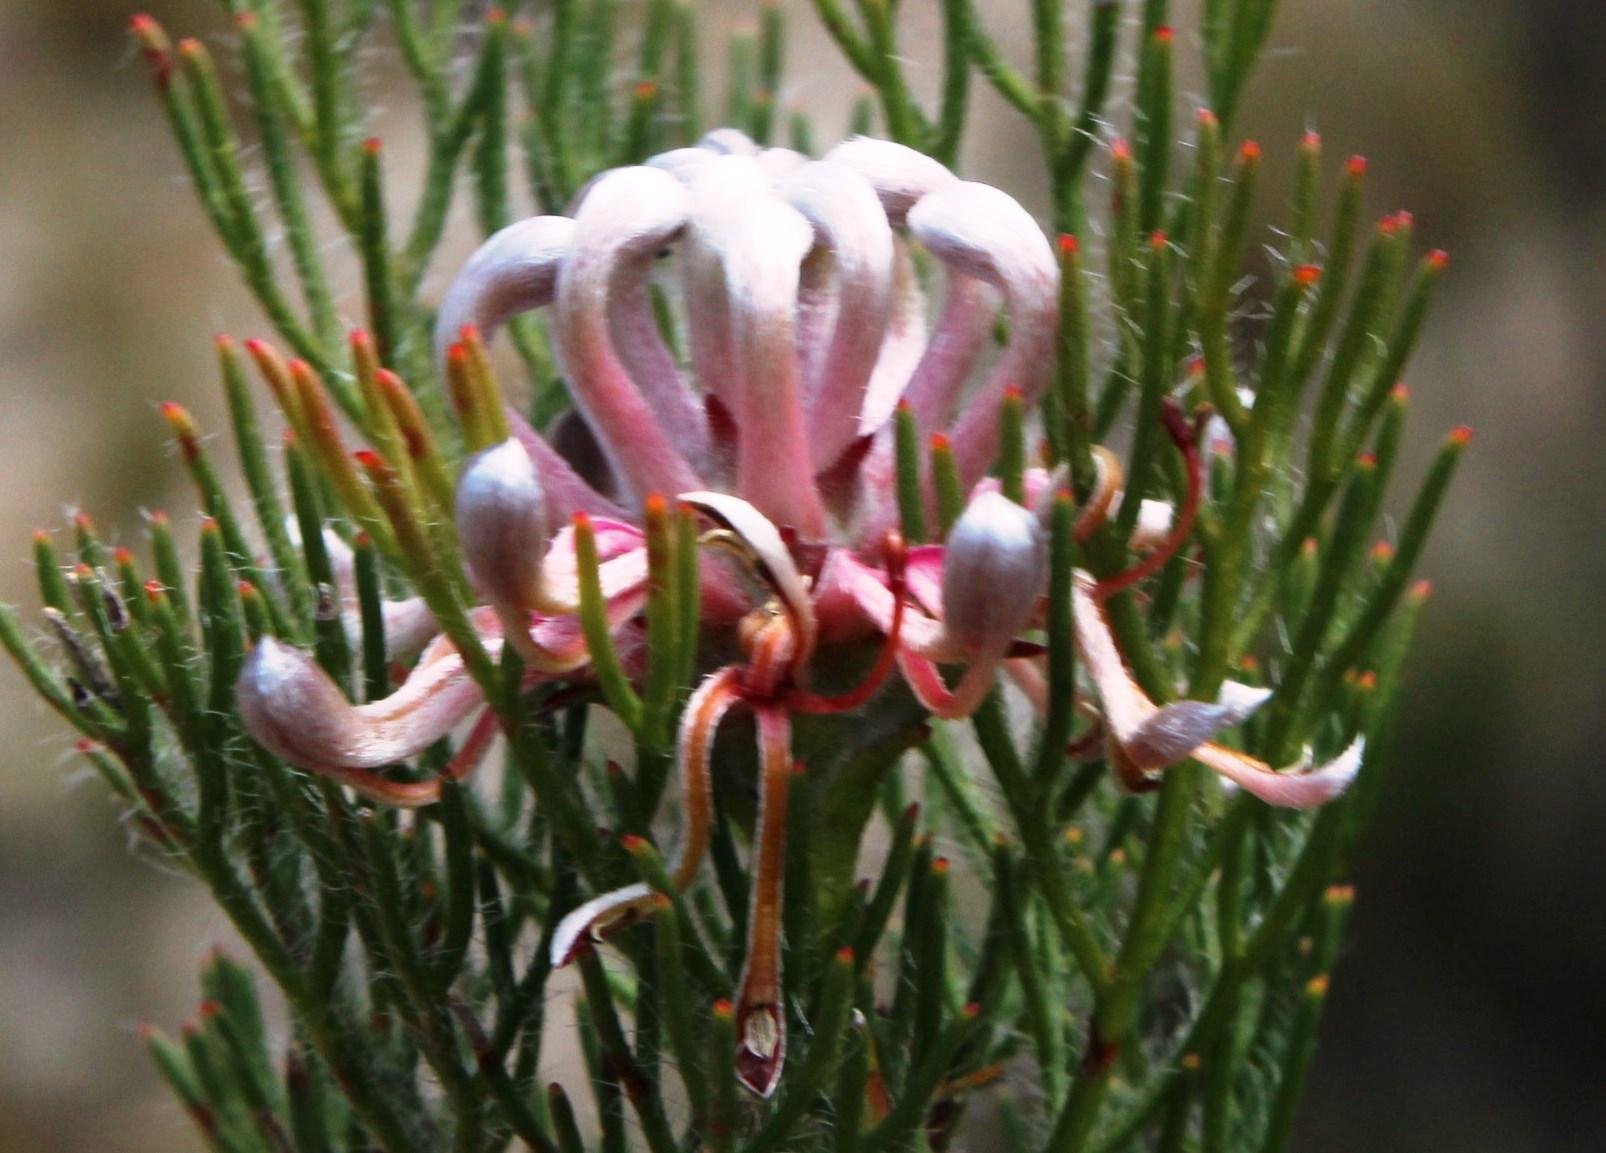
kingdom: Plantae
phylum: Tracheophyta
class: Magnoliopsida
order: Proteales
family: Proteaceae
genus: Serruria
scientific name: Serruria gremialis
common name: Riviersonderend spiderhead
